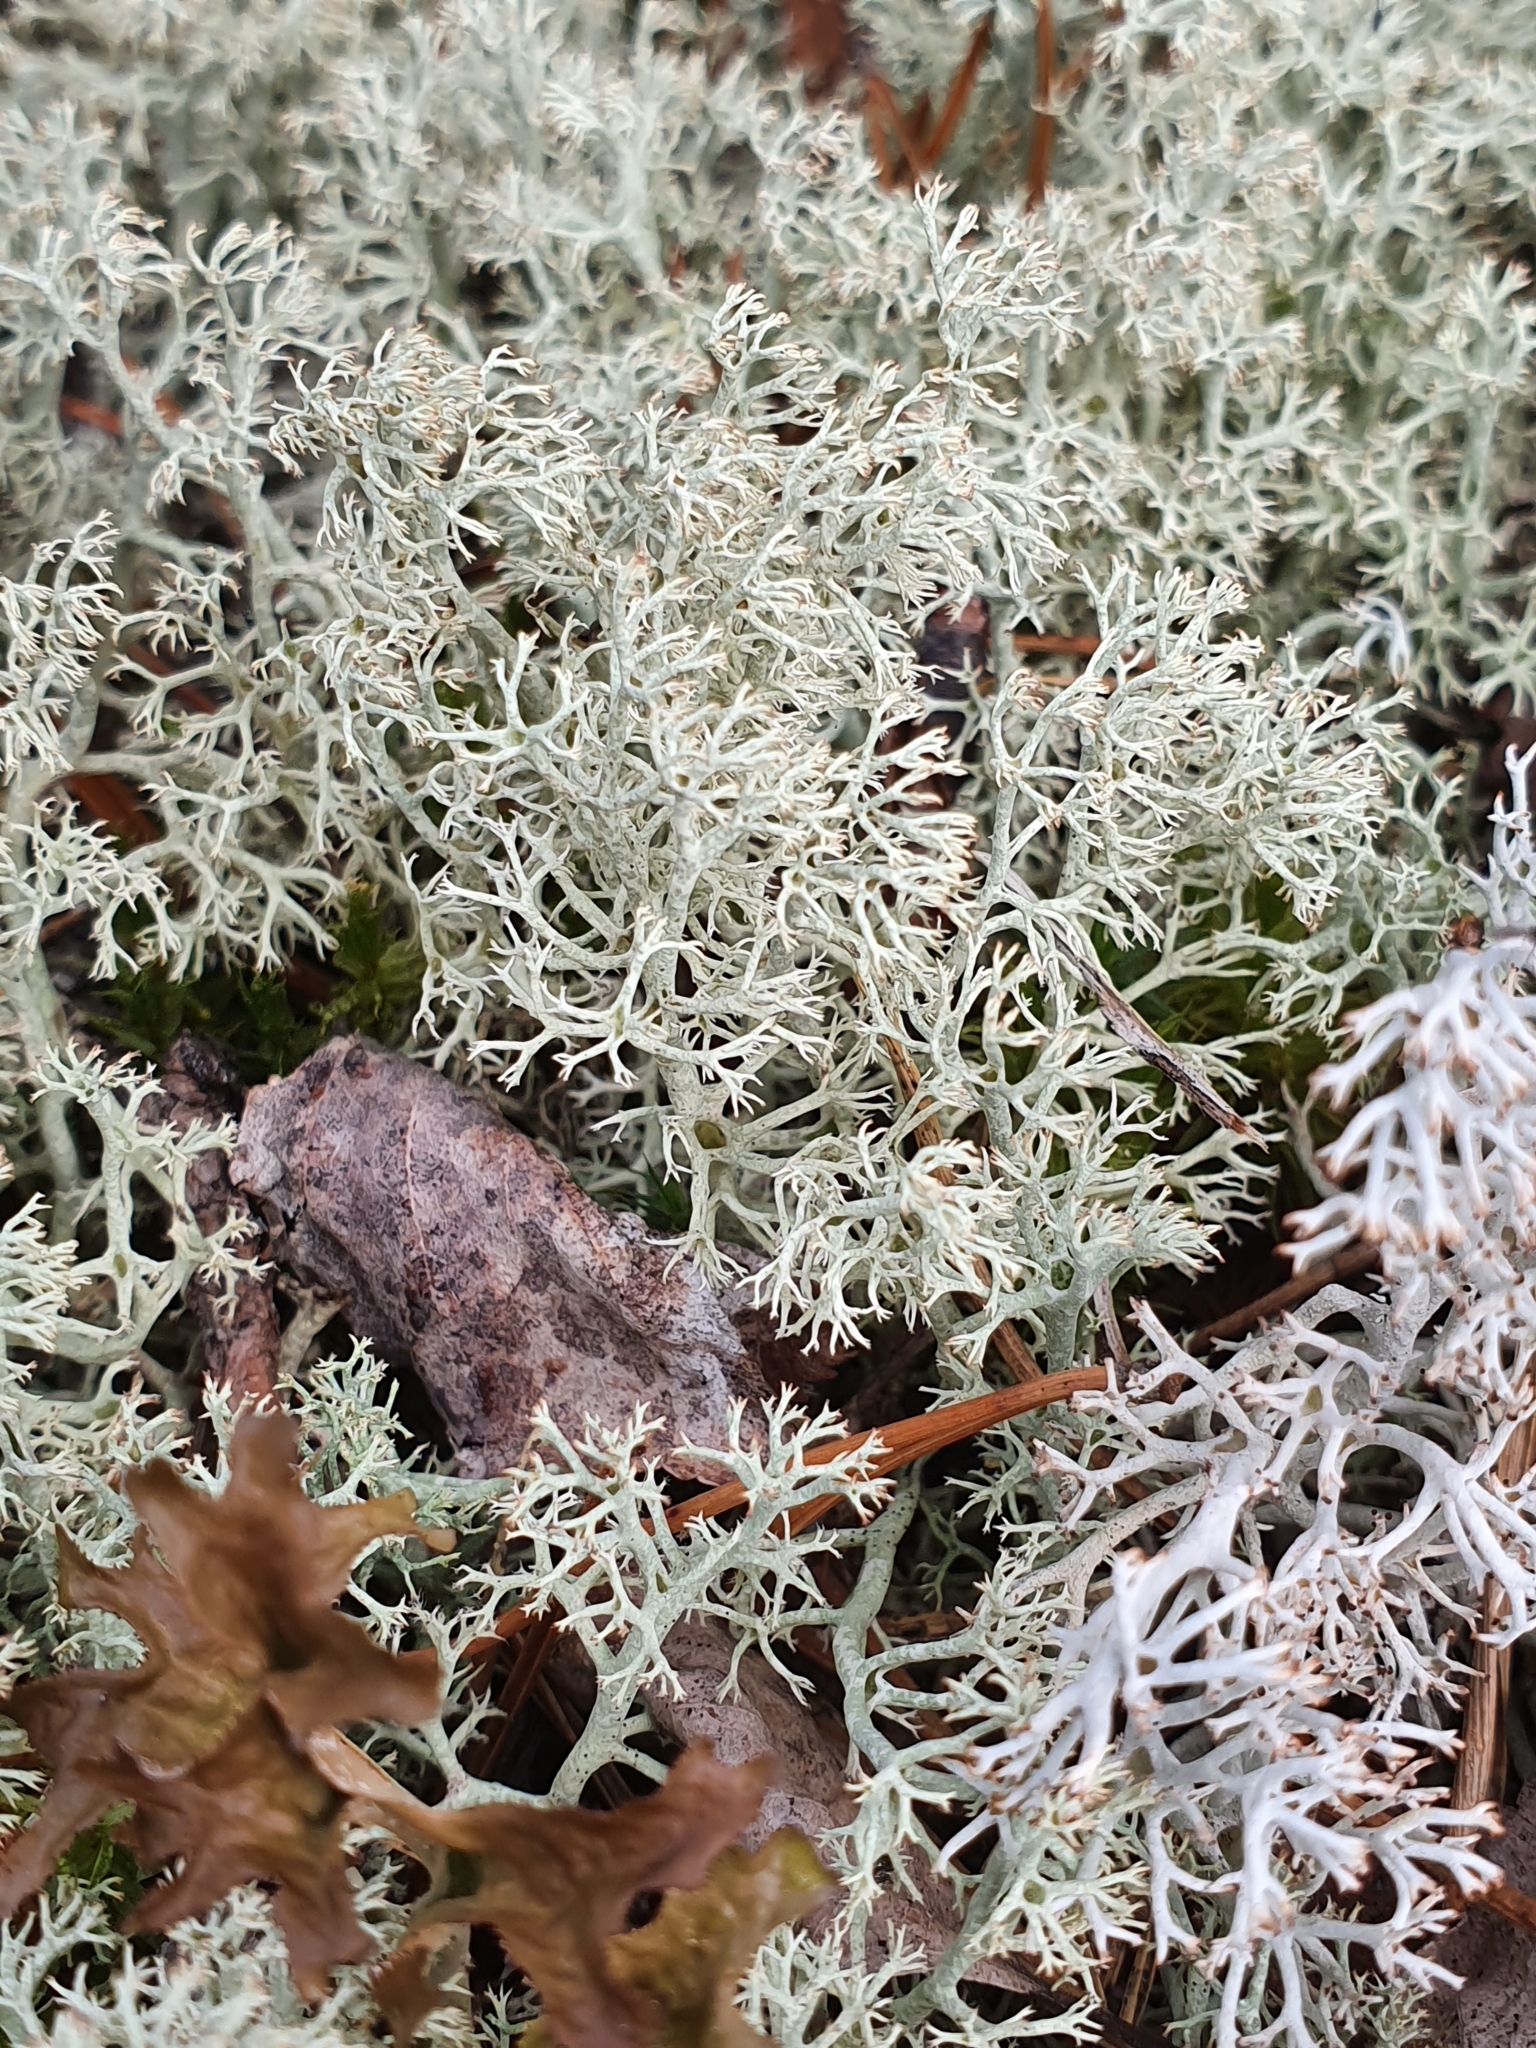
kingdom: Fungi
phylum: Ascomycota
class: Lecanoromycetes
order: Lecanorales
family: Cladoniaceae
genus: Cladonia
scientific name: Cladonia arbuscula
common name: Reindeer lichen
